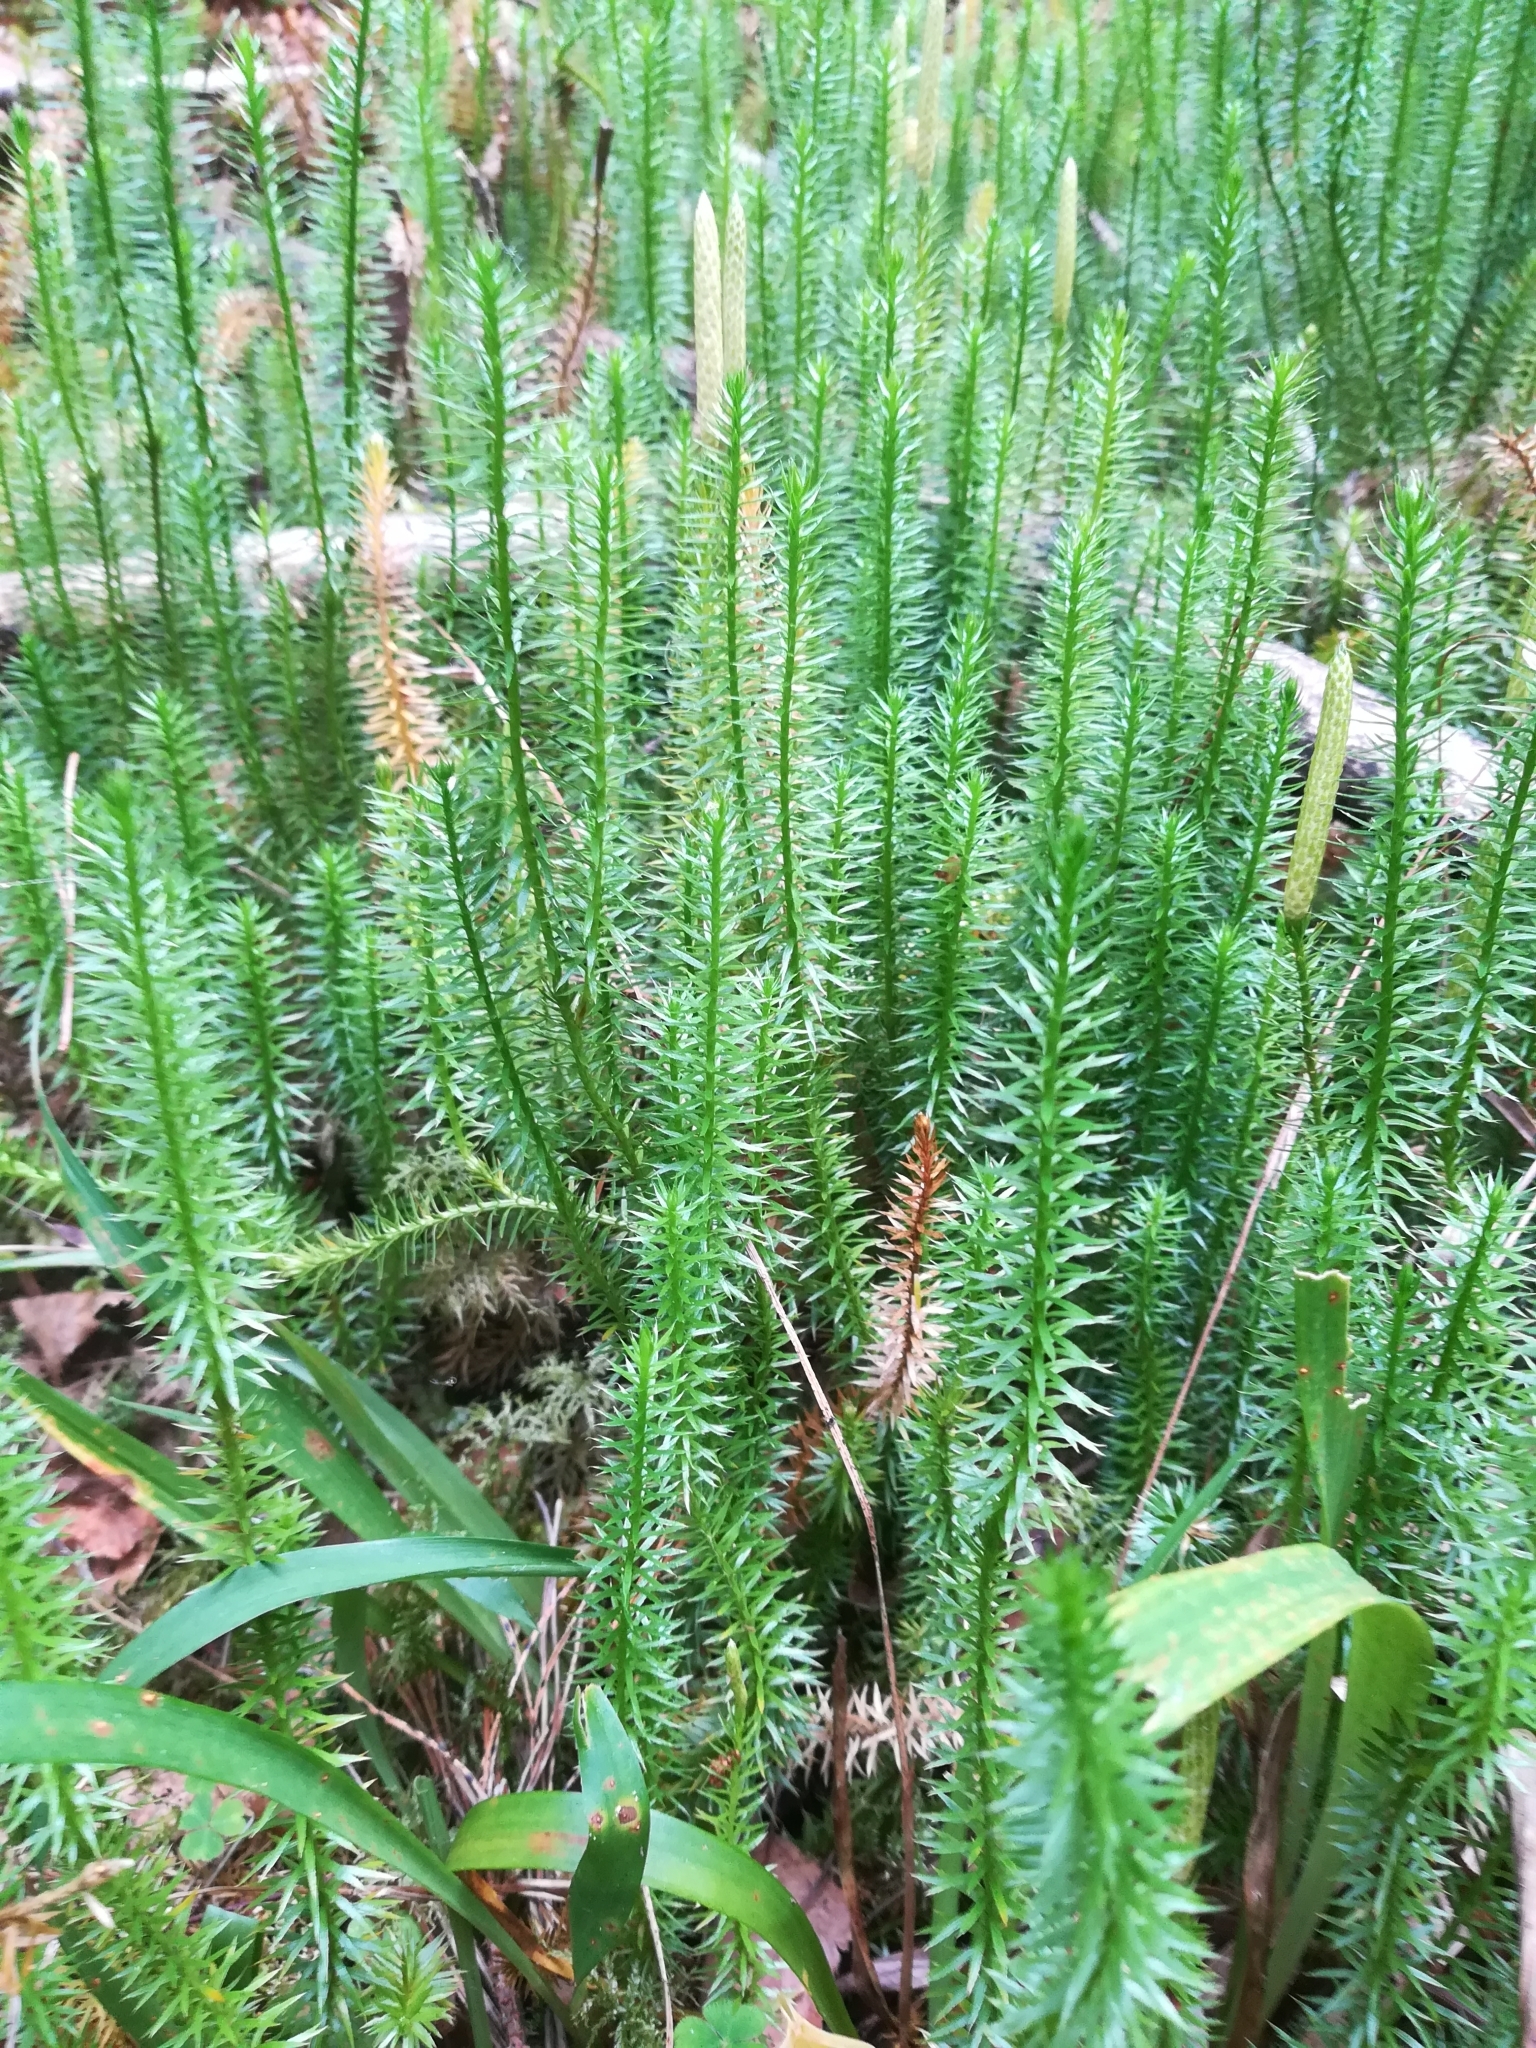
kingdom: Plantae
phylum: Tracheophyta
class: Lycopodiopsida
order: Lycopodiales
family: Lycopodiaceae
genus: Spinulum
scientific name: Spinulum annotinum
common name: Interrupted club-moss
